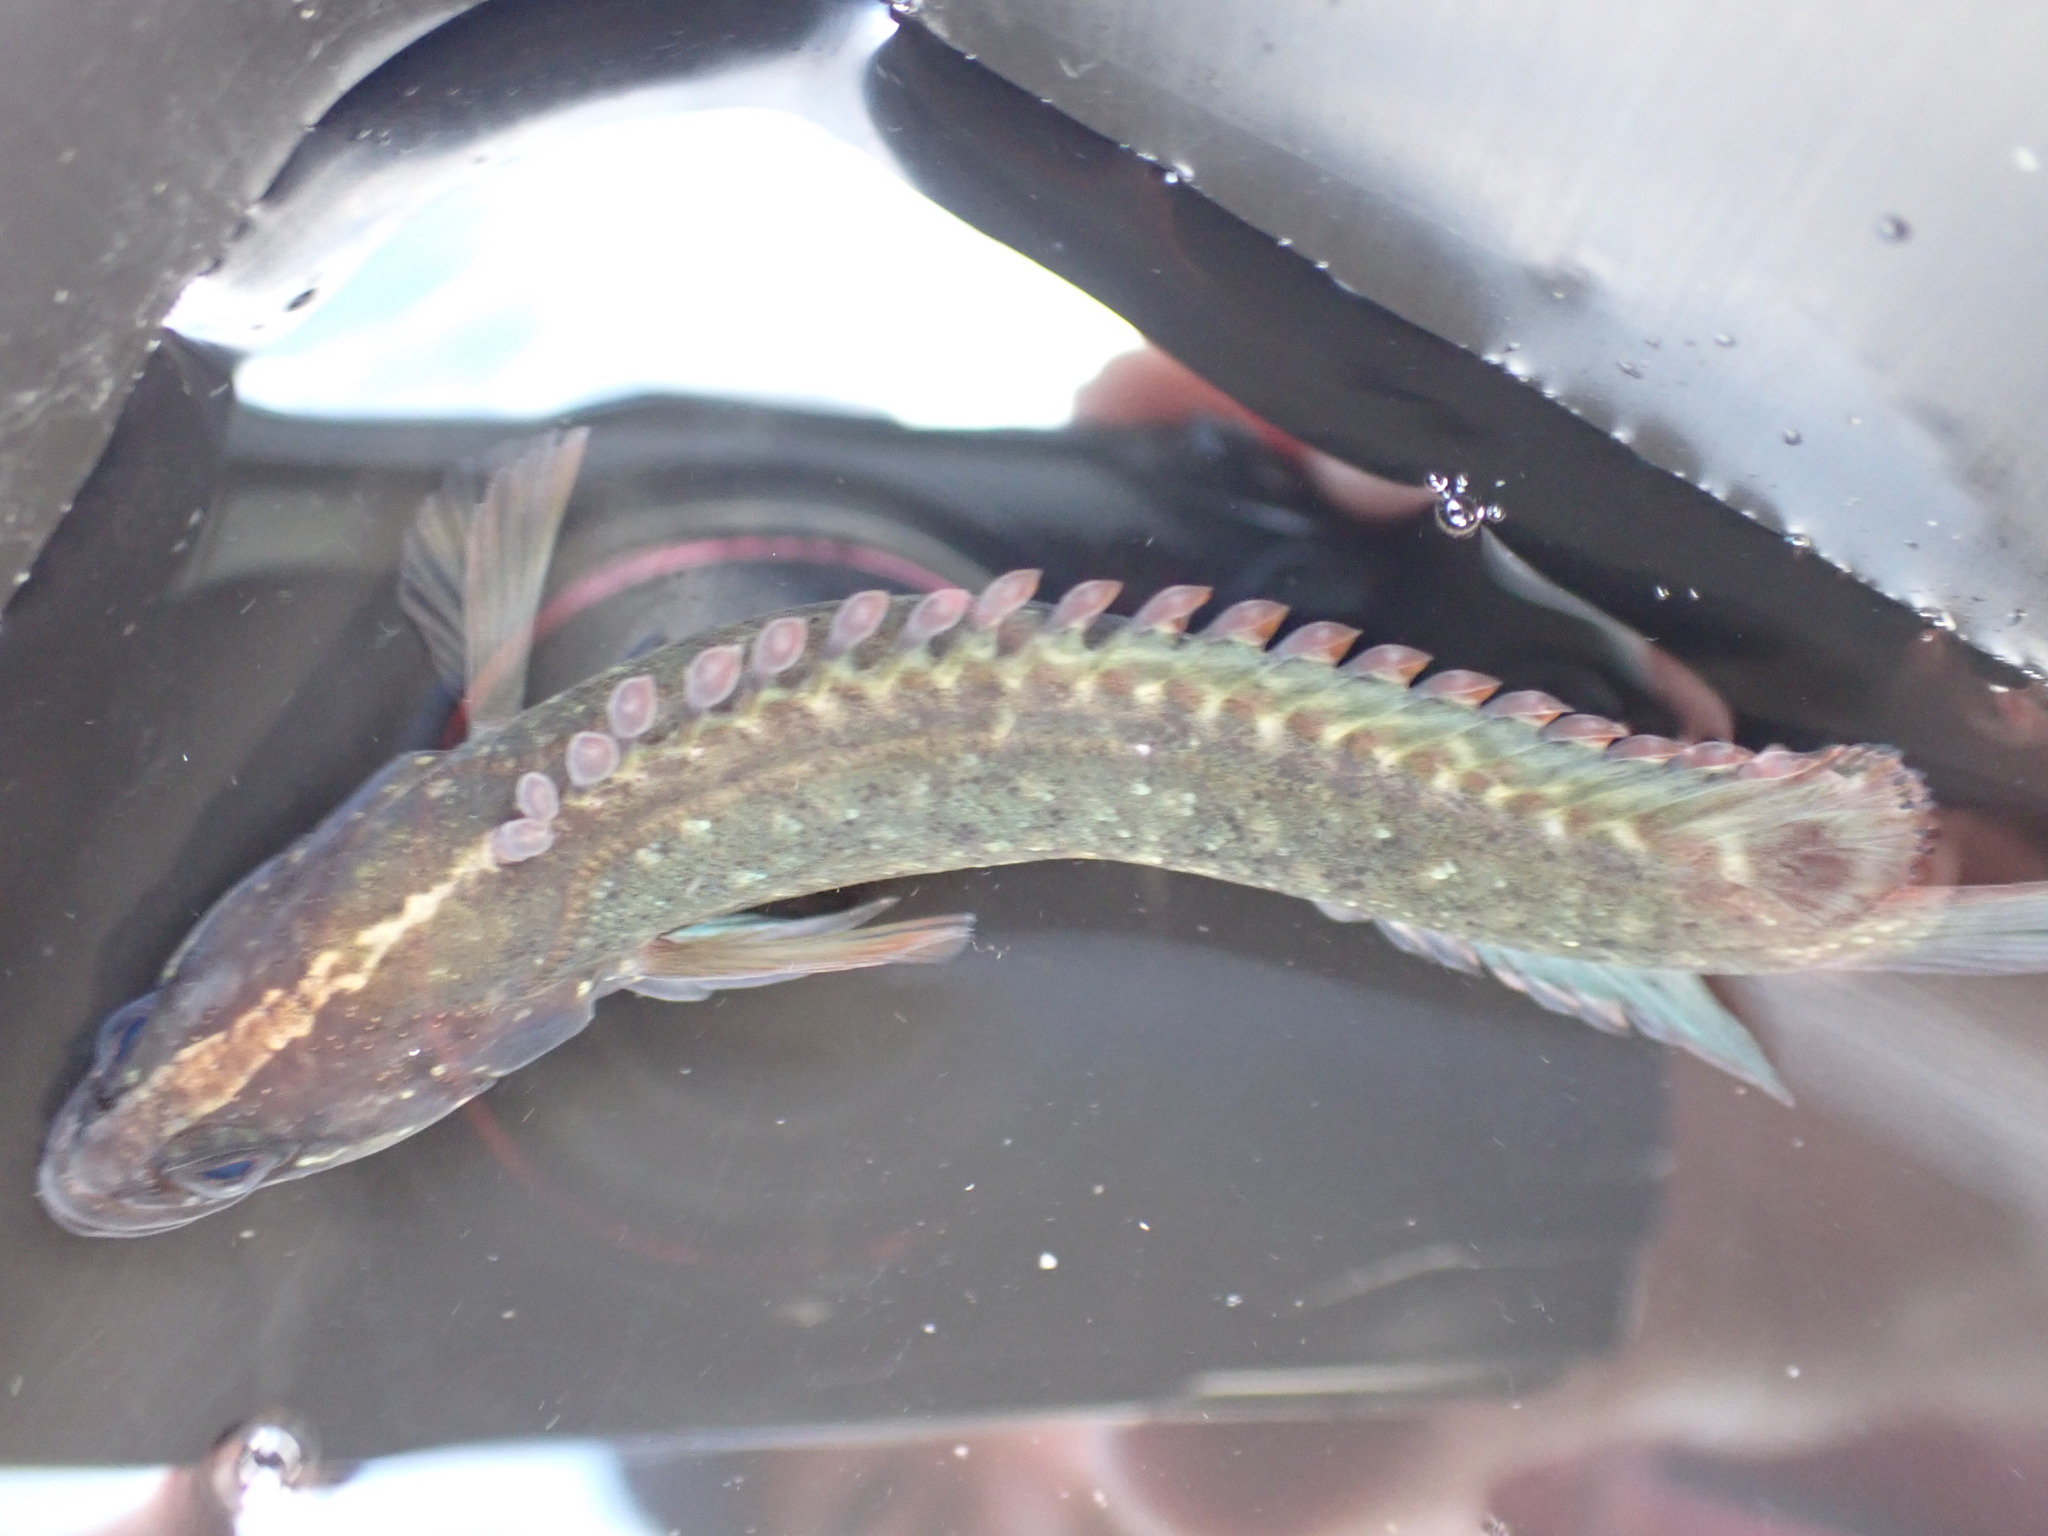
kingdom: Animalia
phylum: Chordata
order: Perciformes
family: Plesiopidae
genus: Acanthoclinus
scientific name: Acanthoclinus fuscus
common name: Olive rockfish
